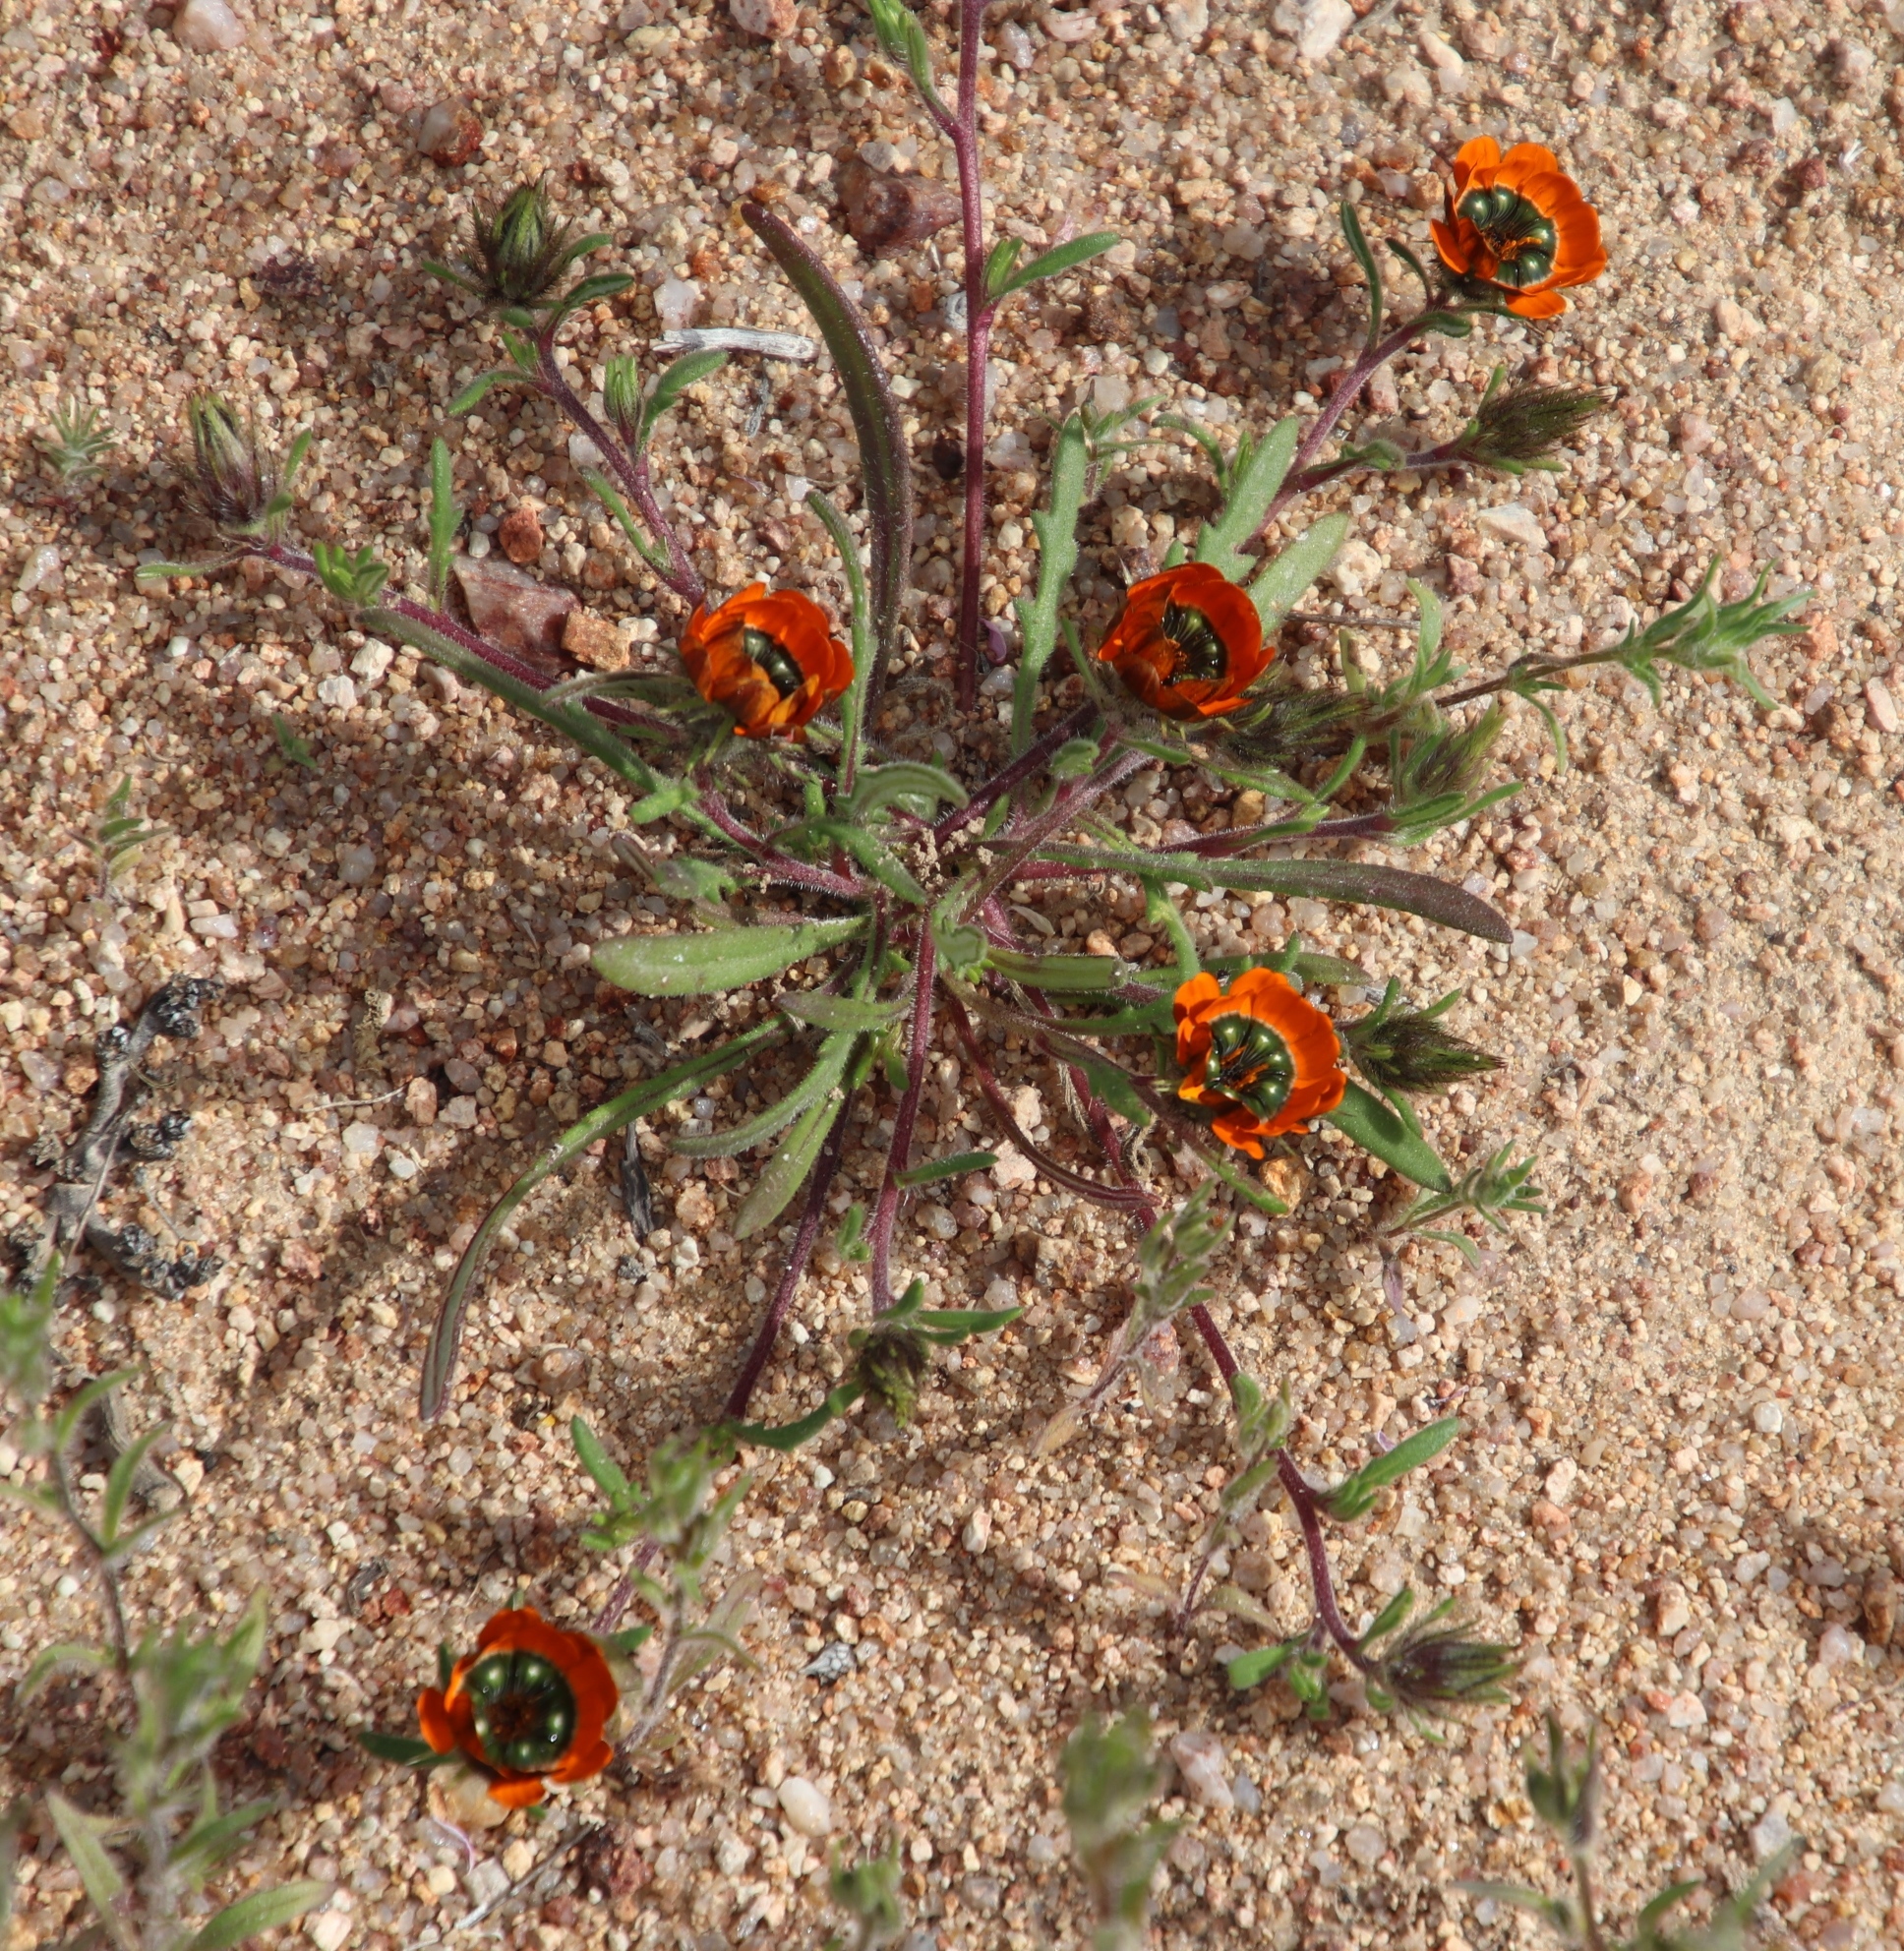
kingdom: Plantae
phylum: Tracheophyta
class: Magnoliopsida
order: Asterales
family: Asteraceae
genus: Gorteria
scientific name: Gorteria diffusa
